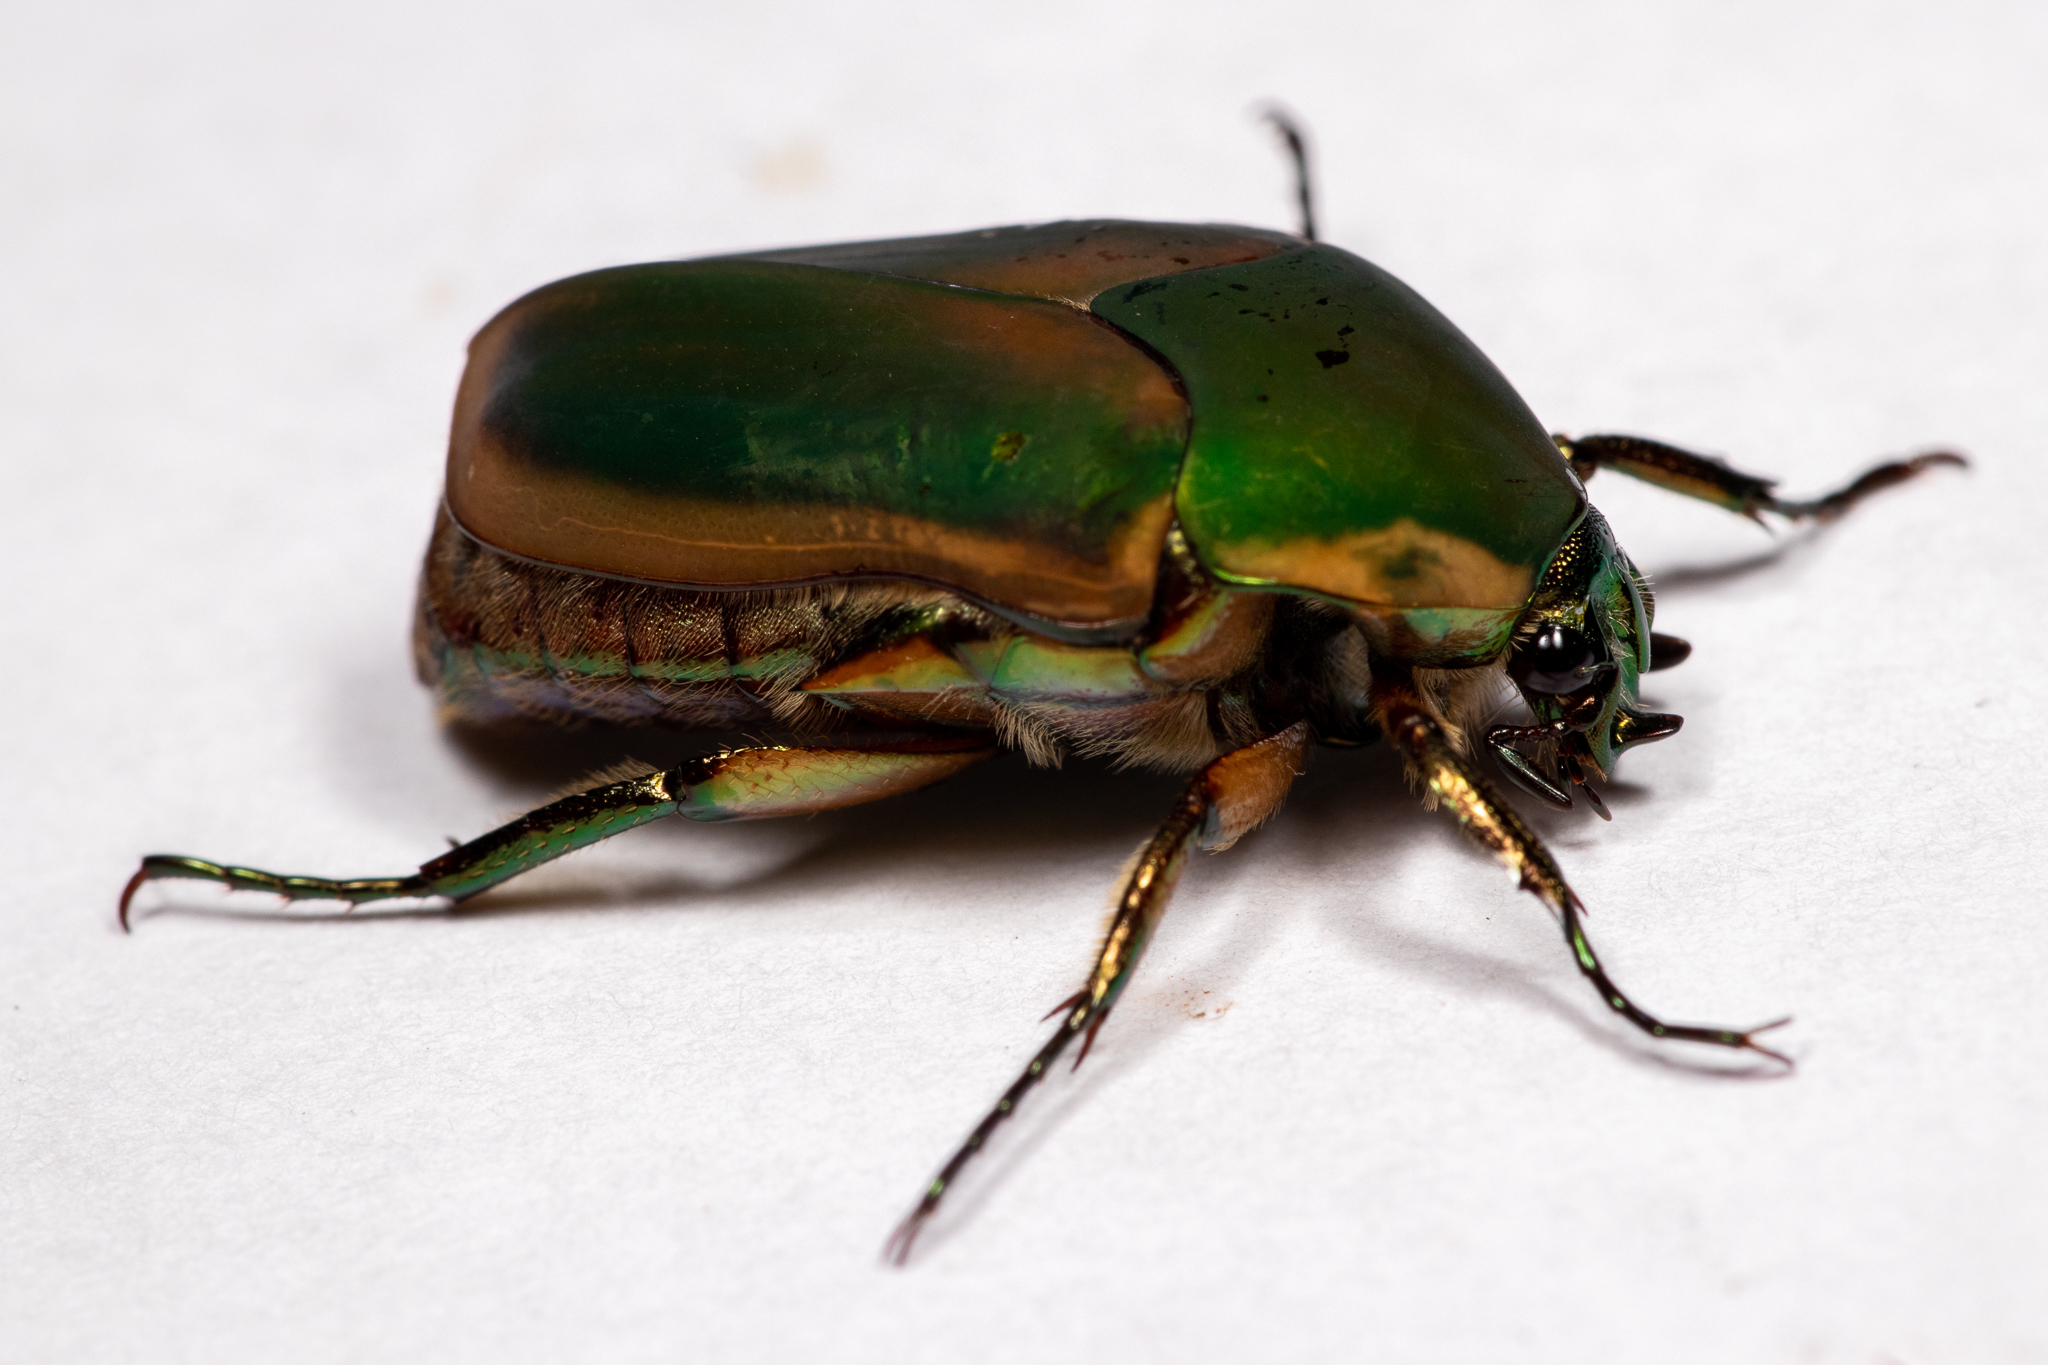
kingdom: Animalia
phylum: Arthropoda
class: Insecta
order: Coleoptera
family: Scarabaeidae
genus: Cotinis
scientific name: Cotinis nitida
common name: Common green june beetle
